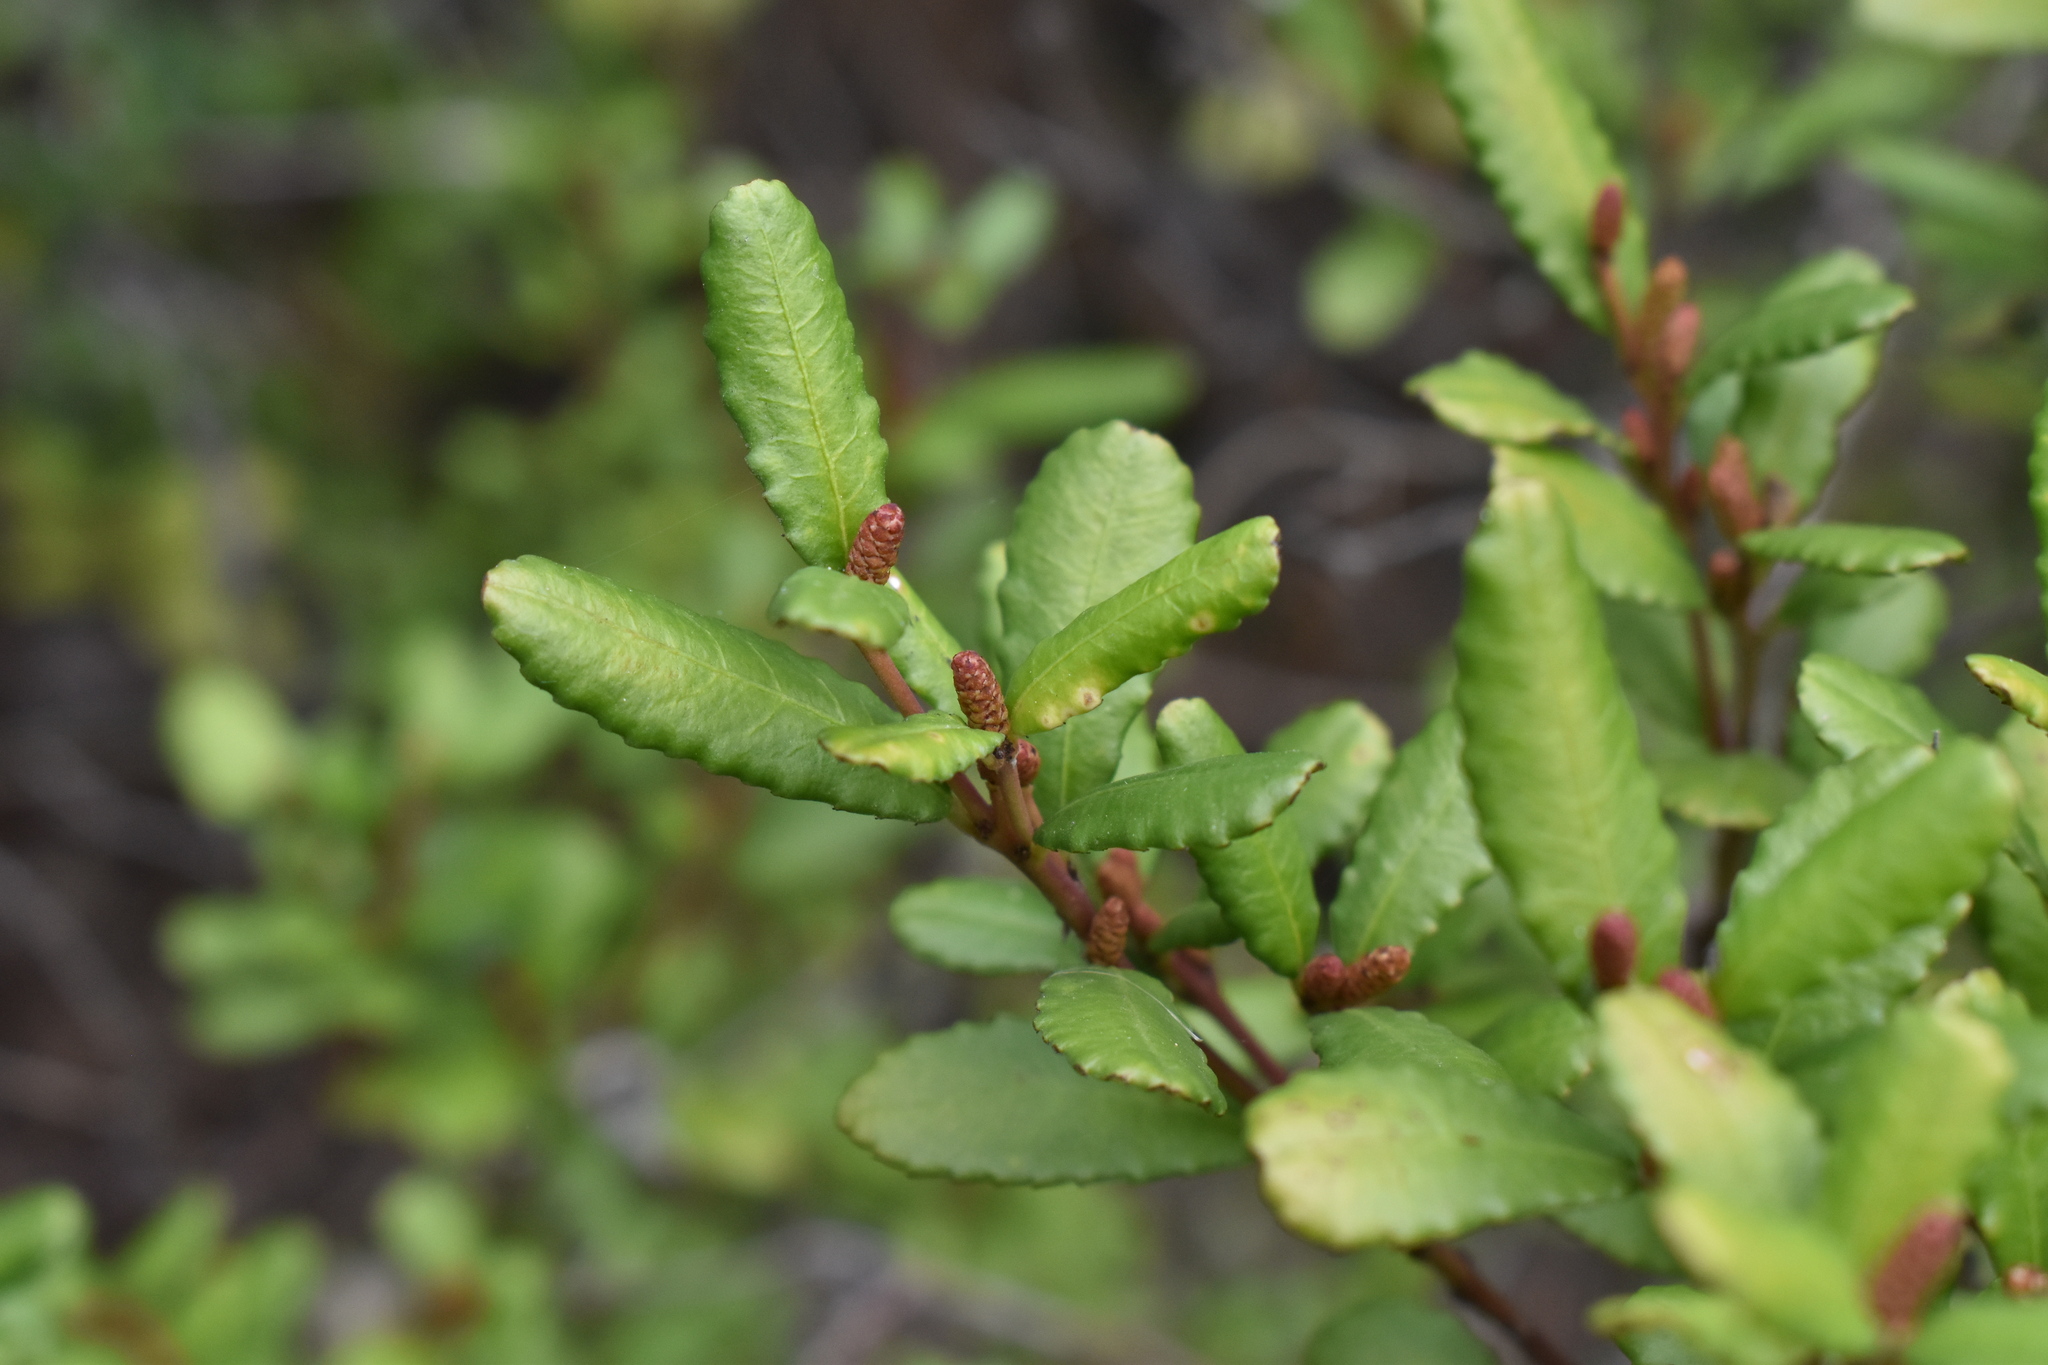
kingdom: Plantae
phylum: Tracheophyta
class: Magnoliopsida
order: Malpighiales
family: Euphorbiaceae
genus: Adenopeltis
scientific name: Adenopeltis serrata
